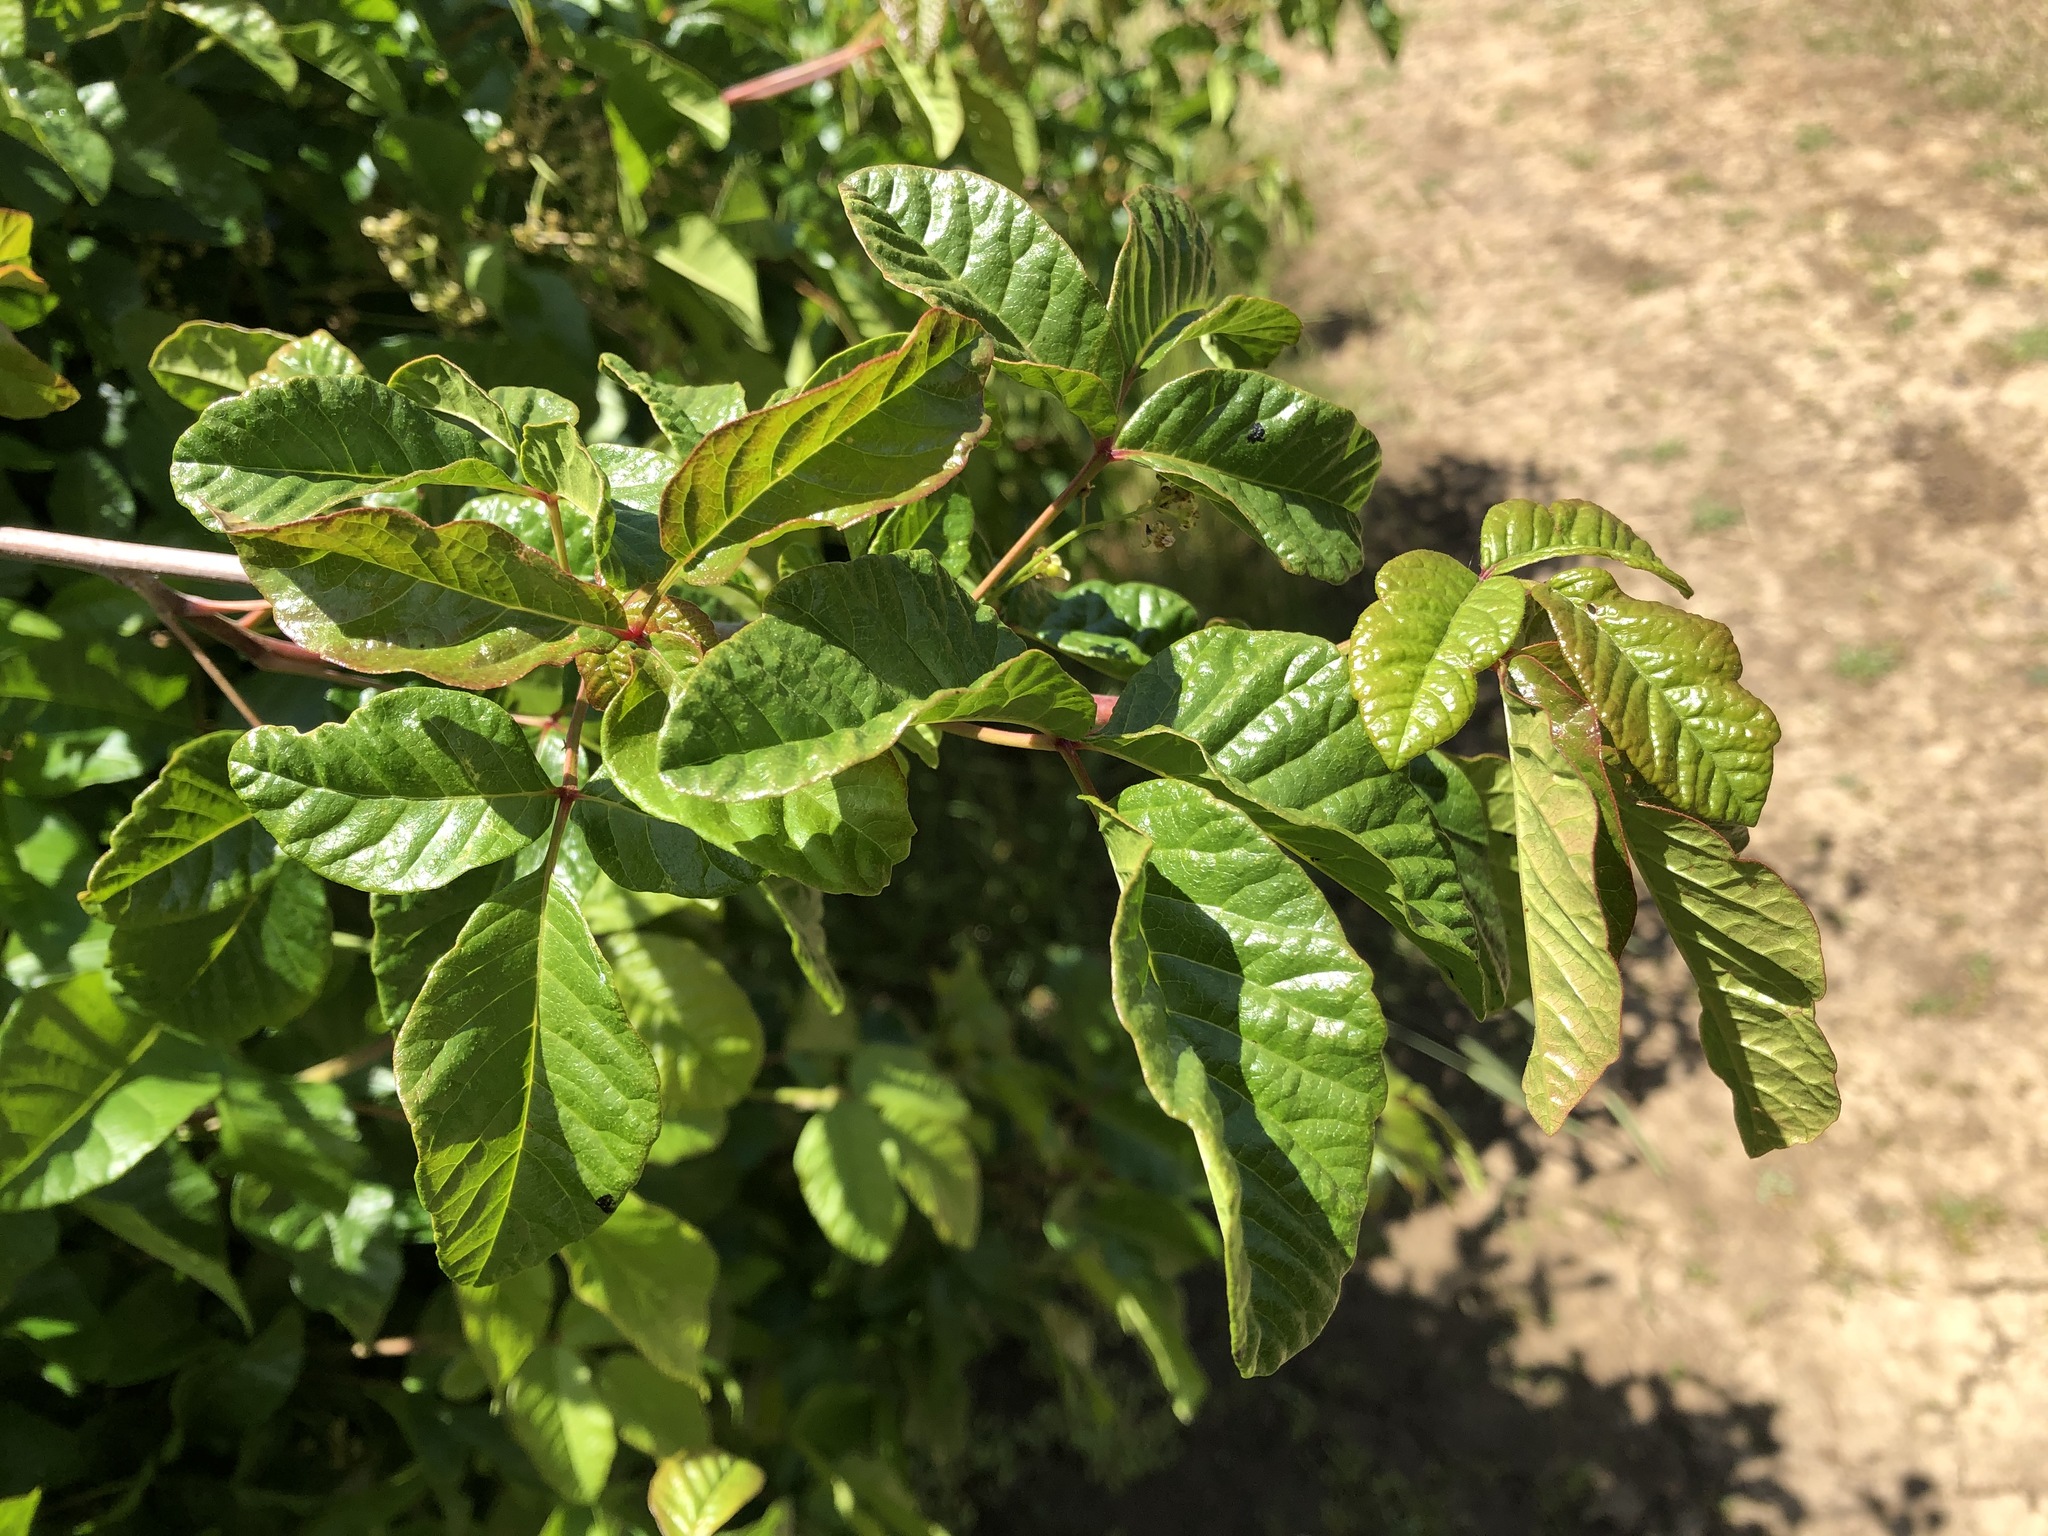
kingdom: Plantae
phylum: Tracheophyta
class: Magnoliopsida
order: Sapindales
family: Anacardiaceae
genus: Toxicodendron
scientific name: Toxicodendron diversilobum
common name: Pacific poison-oak
